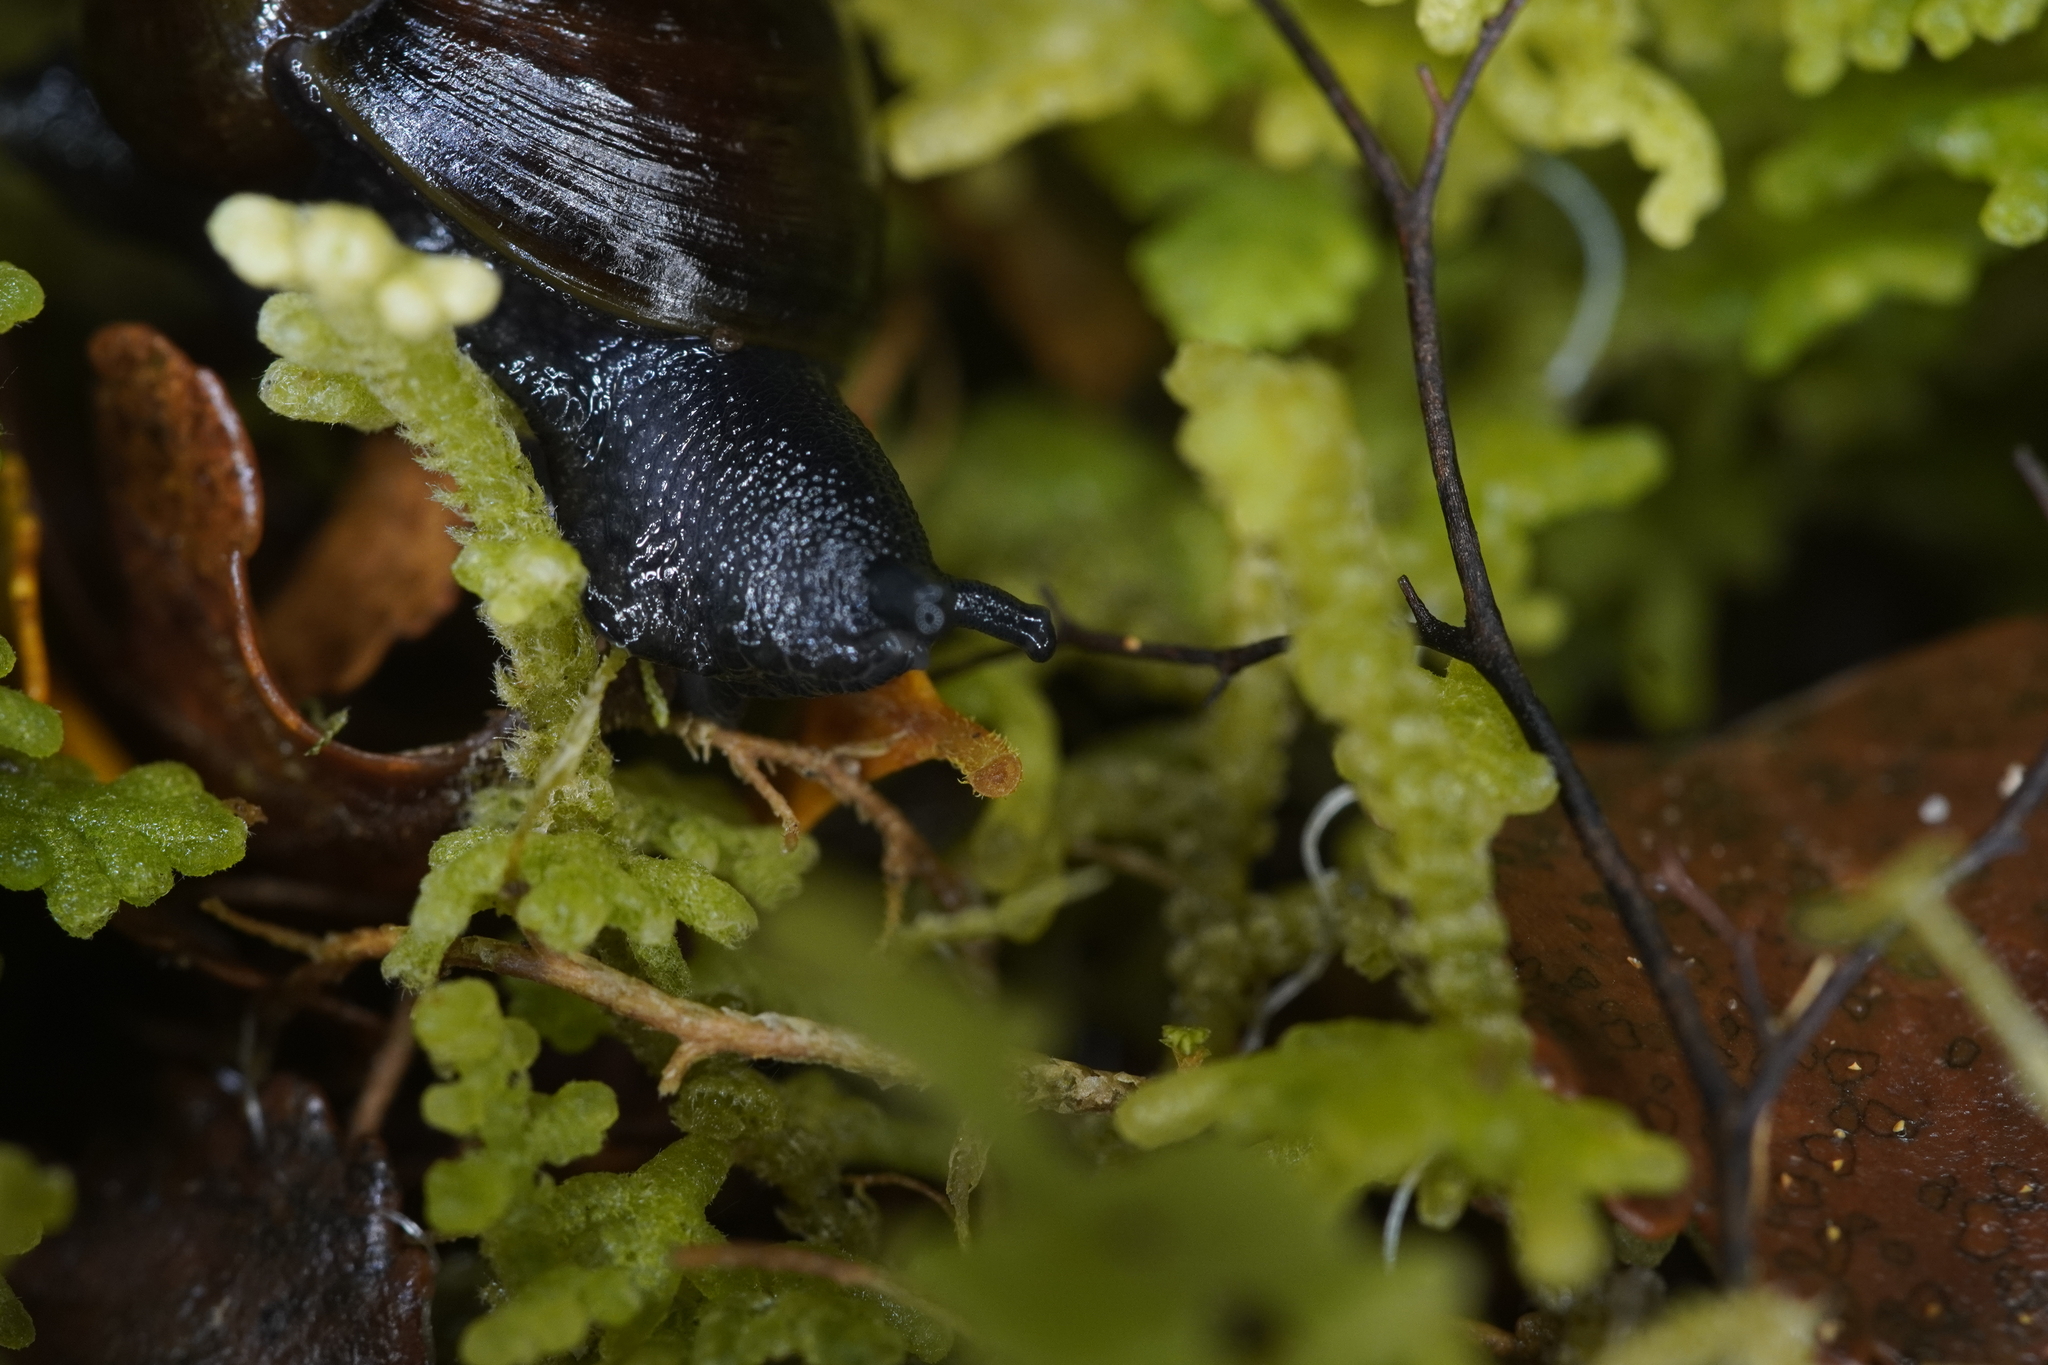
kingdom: Animalia
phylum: Mollusca
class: Gastropoda
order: Stylommatophora
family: Rhytididae
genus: Wainuia
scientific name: Wainuia urnula
